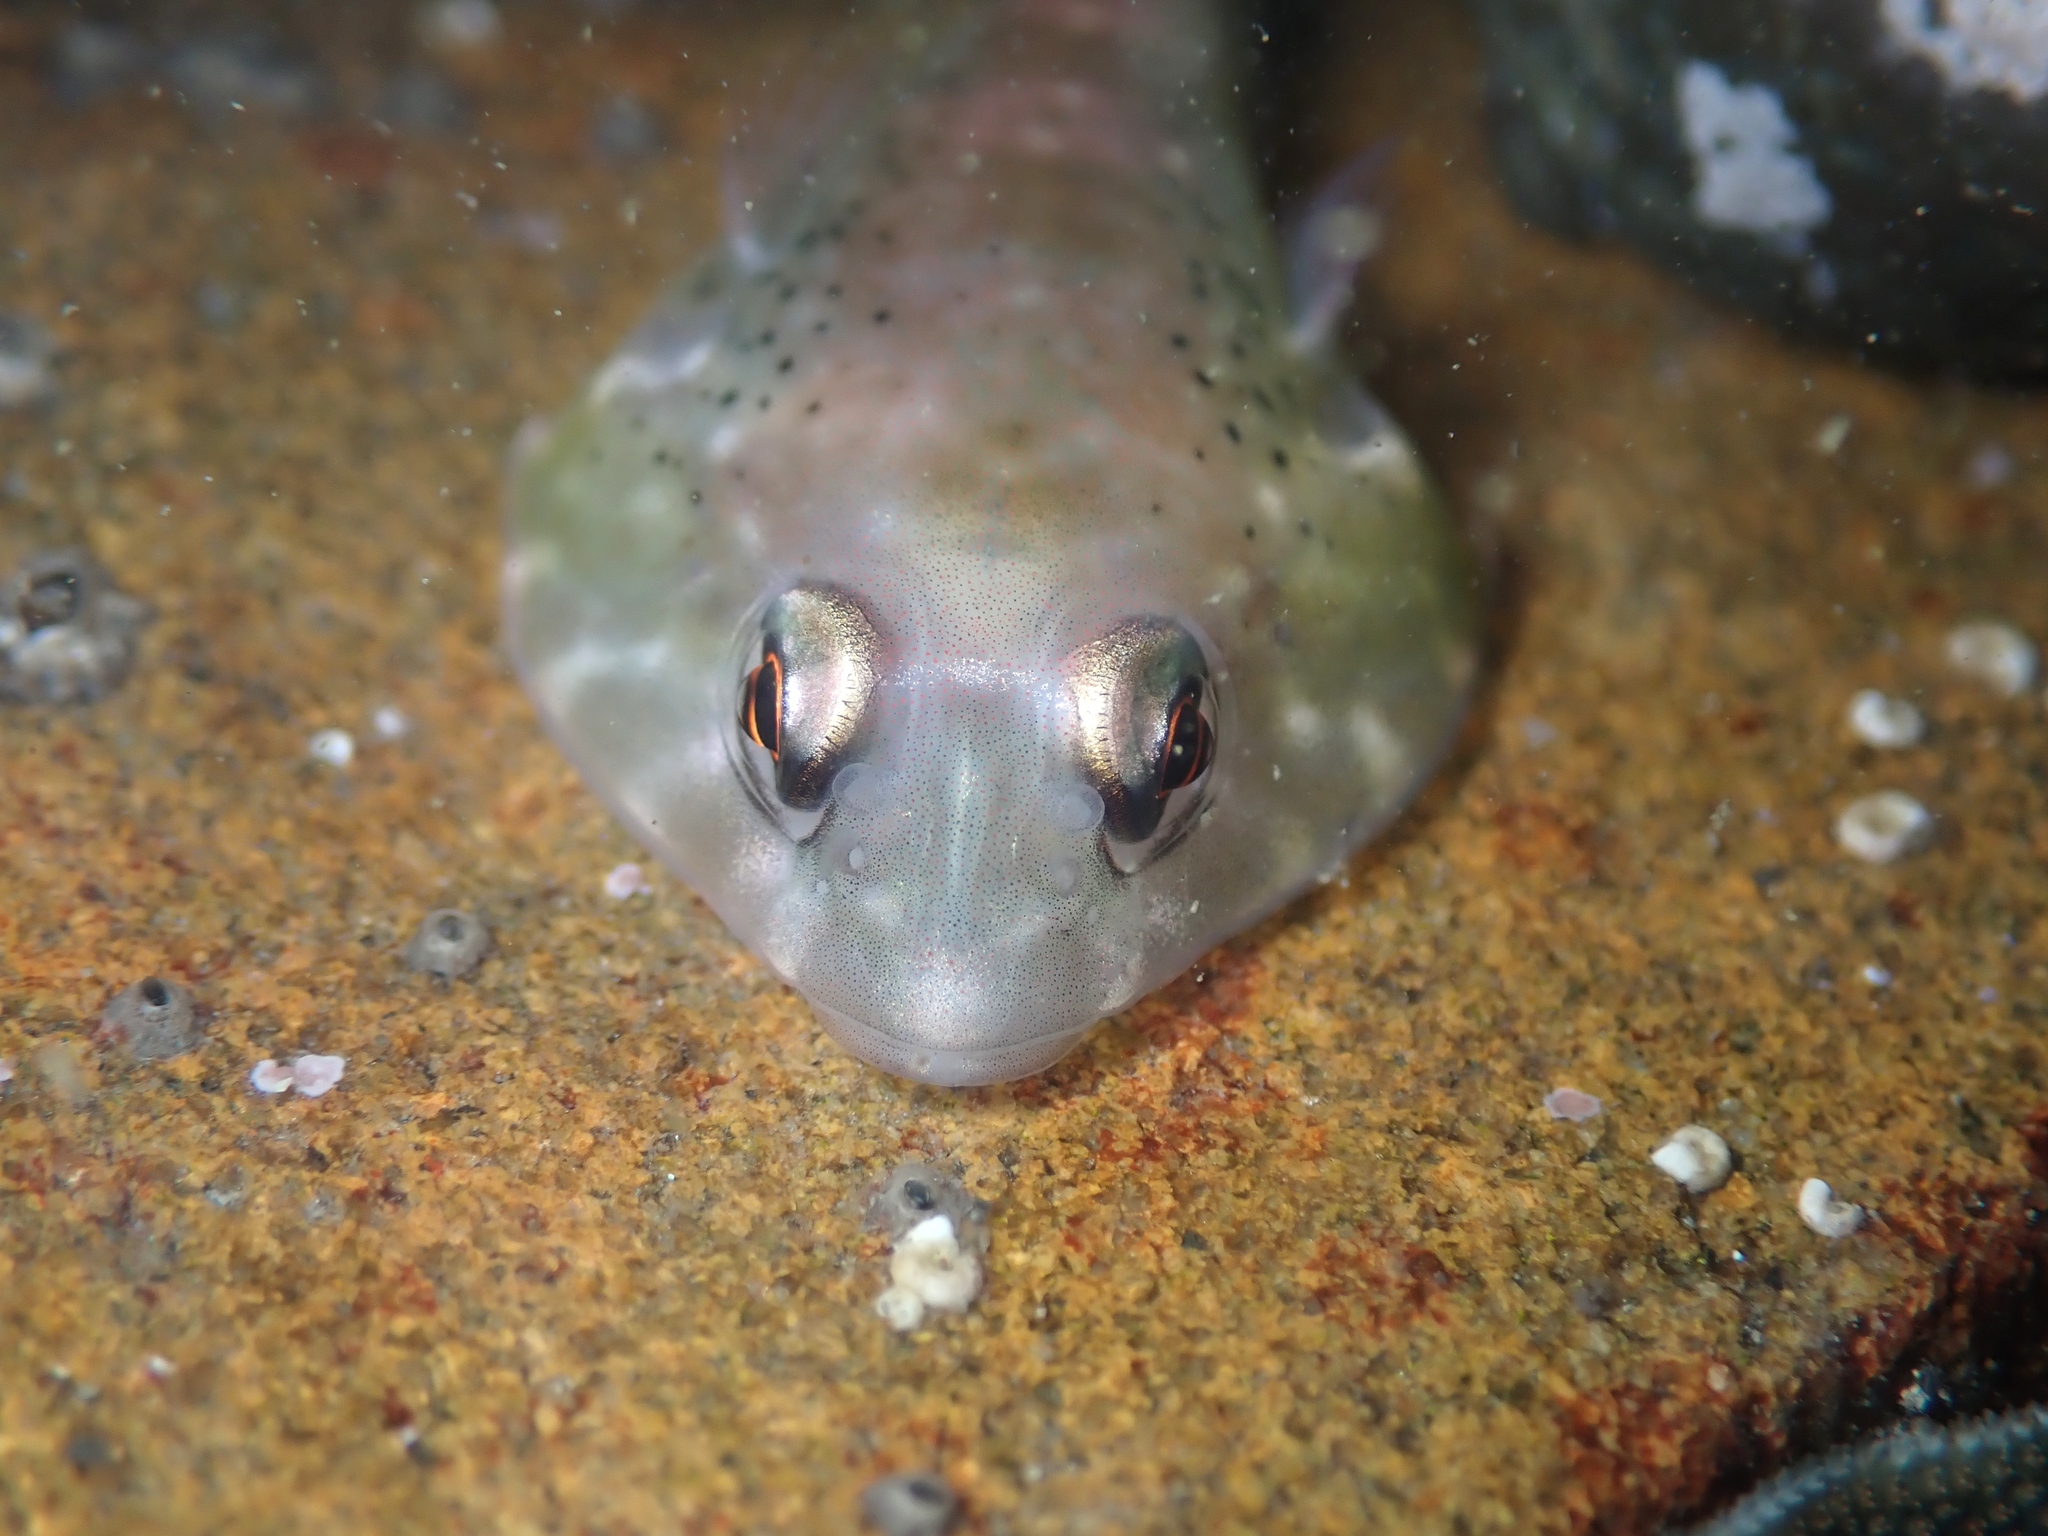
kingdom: Animalia
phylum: Chordata
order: Gobiesociformes
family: Gobiesocidae
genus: Diplocrepis
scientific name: Diplocrepis puniceus
